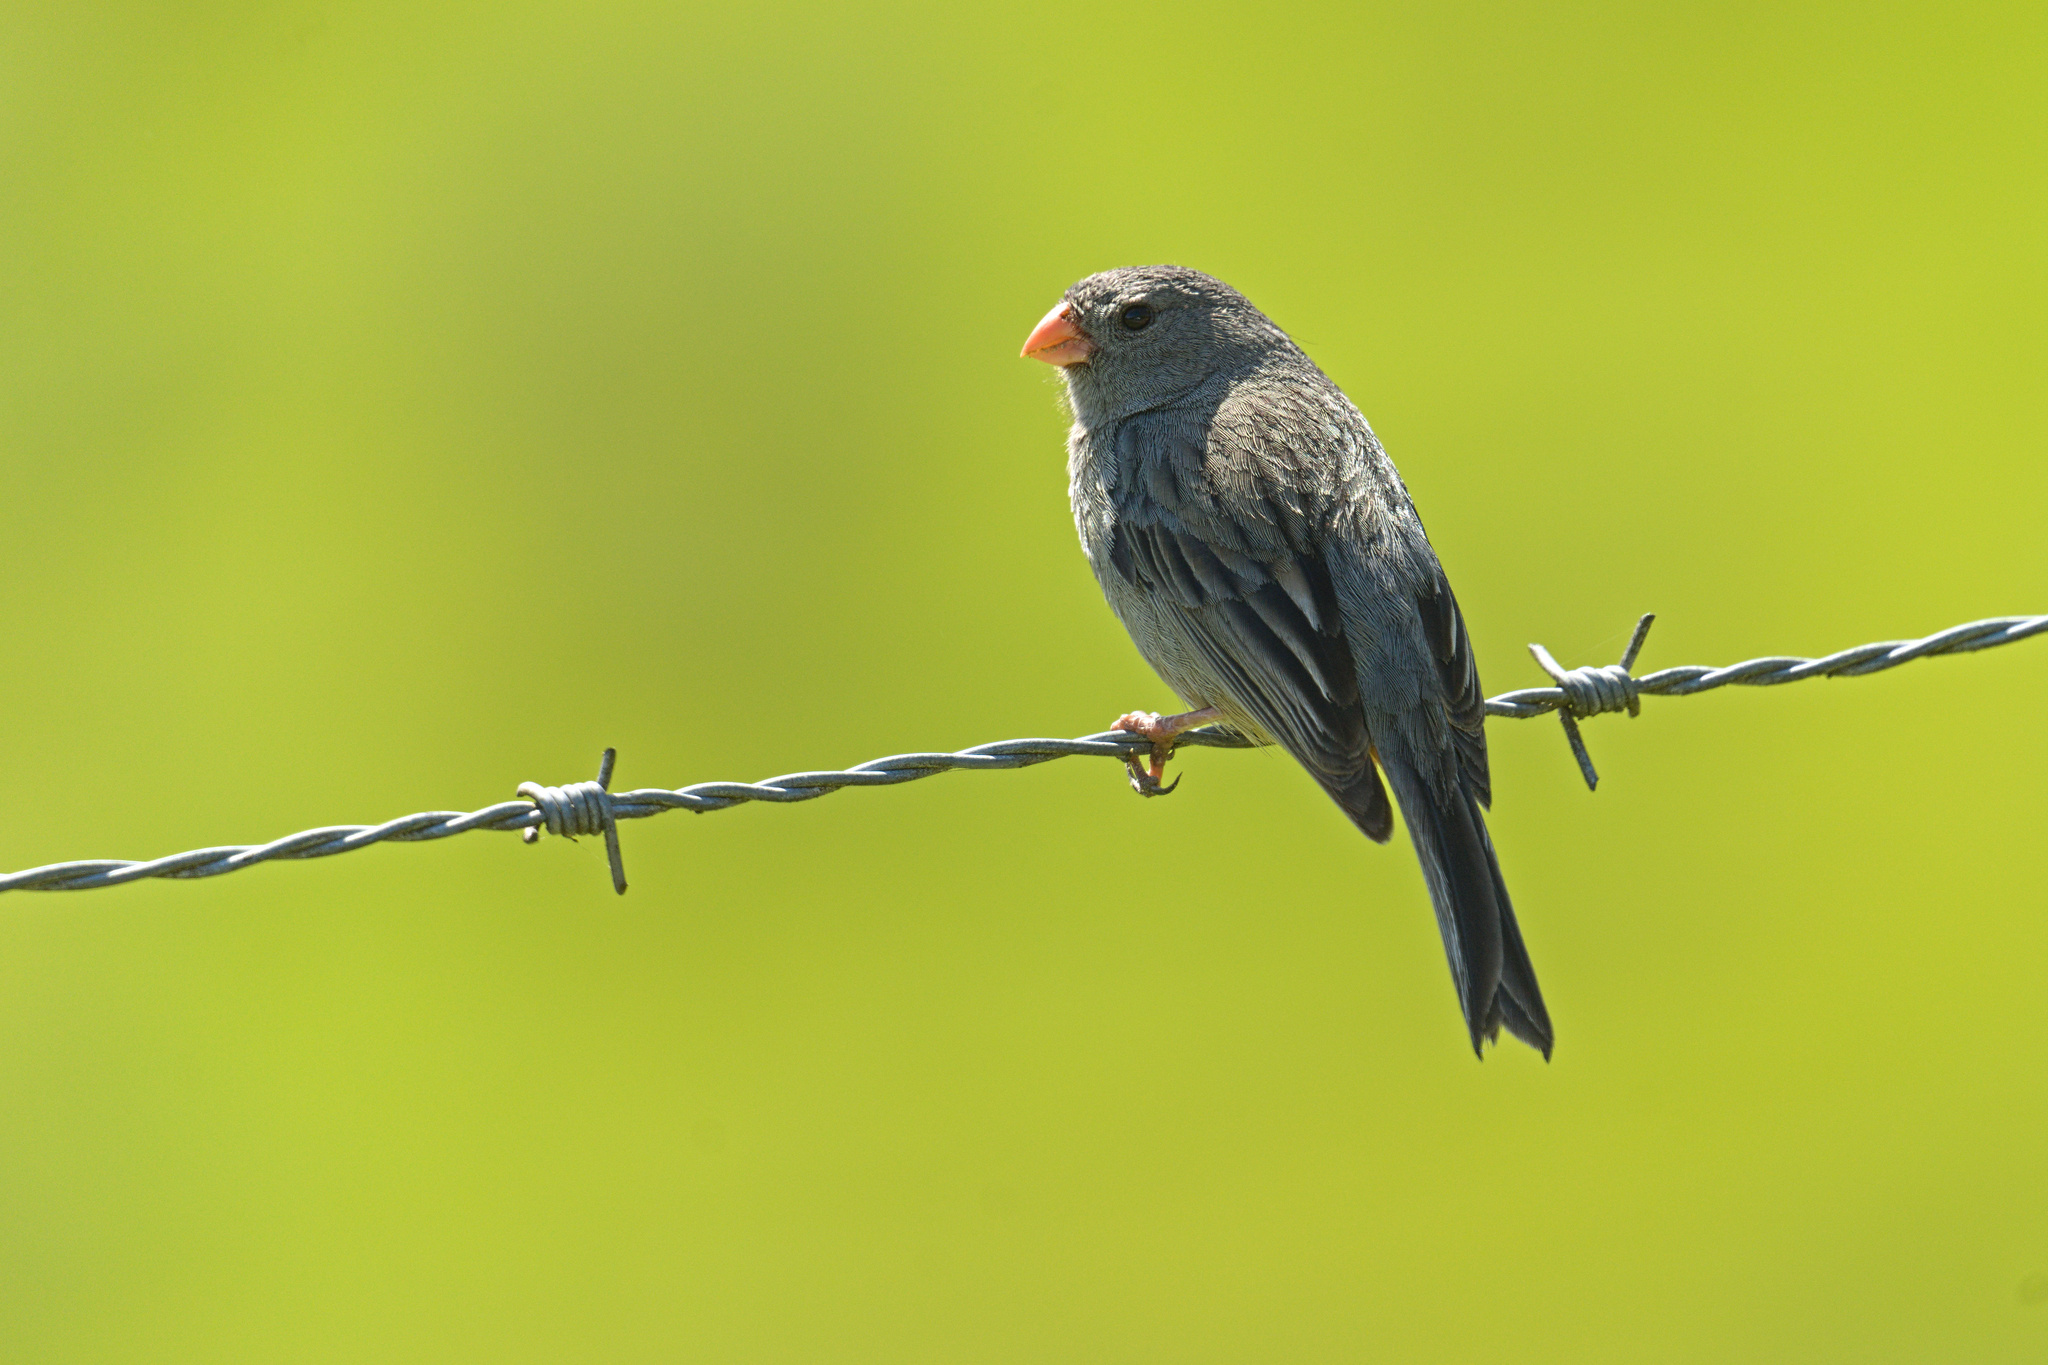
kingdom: Animalia
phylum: Chordata
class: Aves
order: Passeriformes
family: Thraupidae
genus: Catamenia
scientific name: Catamenia inornata
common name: Plain-colored seedeater
